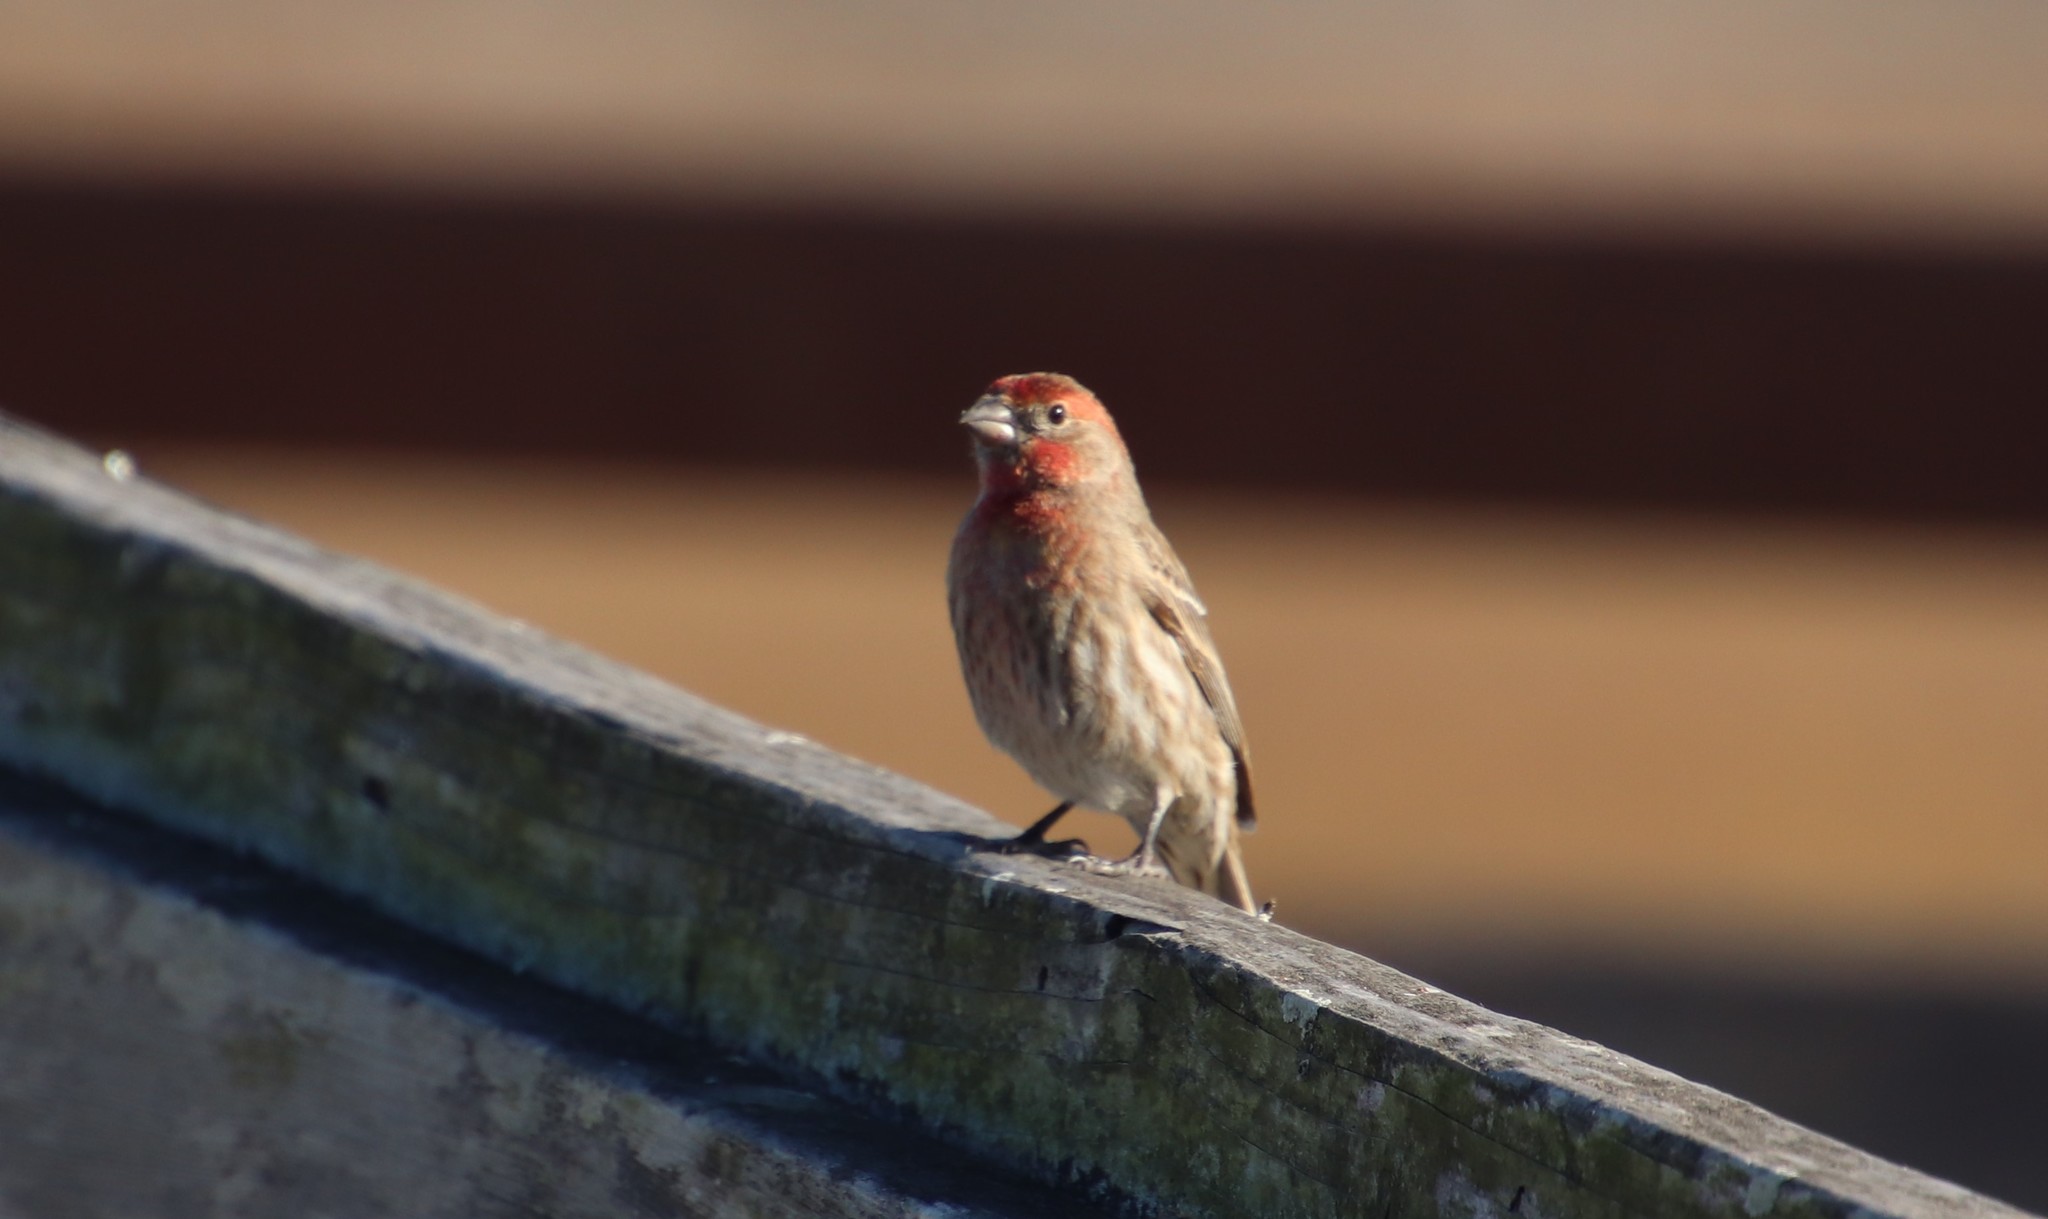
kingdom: Animalia
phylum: Chordata
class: Aves
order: Passeriformes
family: Fringillidae
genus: Haemorhous
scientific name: Haemorhous mexicanus
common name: House finch
